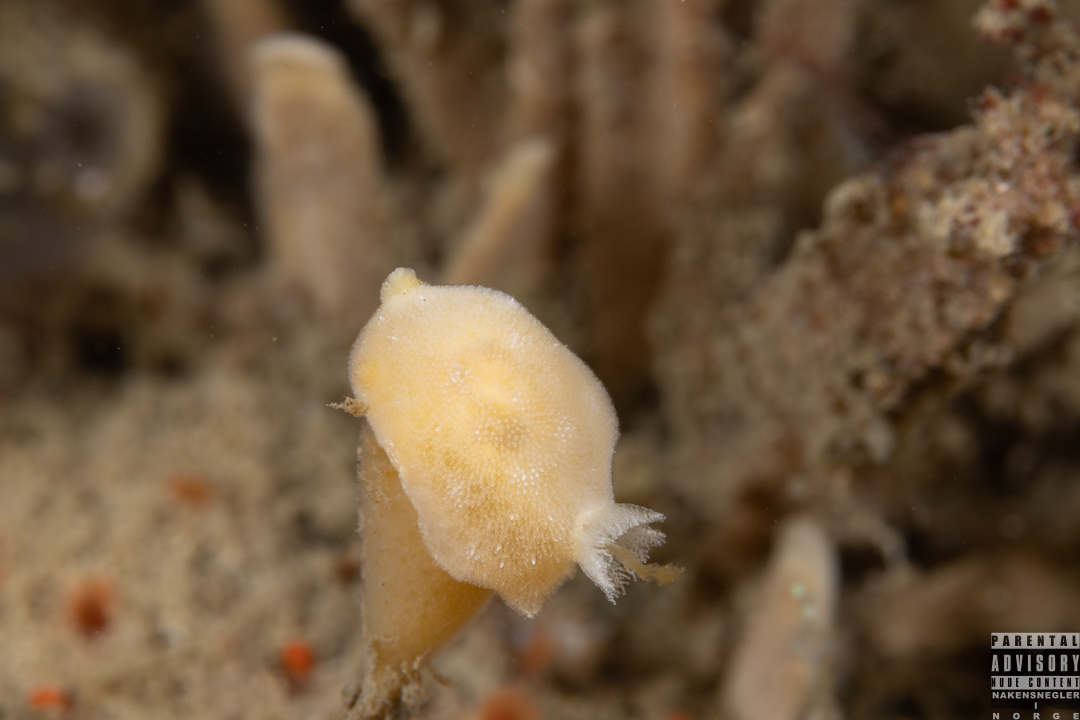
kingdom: Animalia
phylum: Mollusca
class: Gastropoda
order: Nudibranchia
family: Discodorididae
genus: Jorunna
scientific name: Jorunna tomentosa
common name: Grey sea slug
